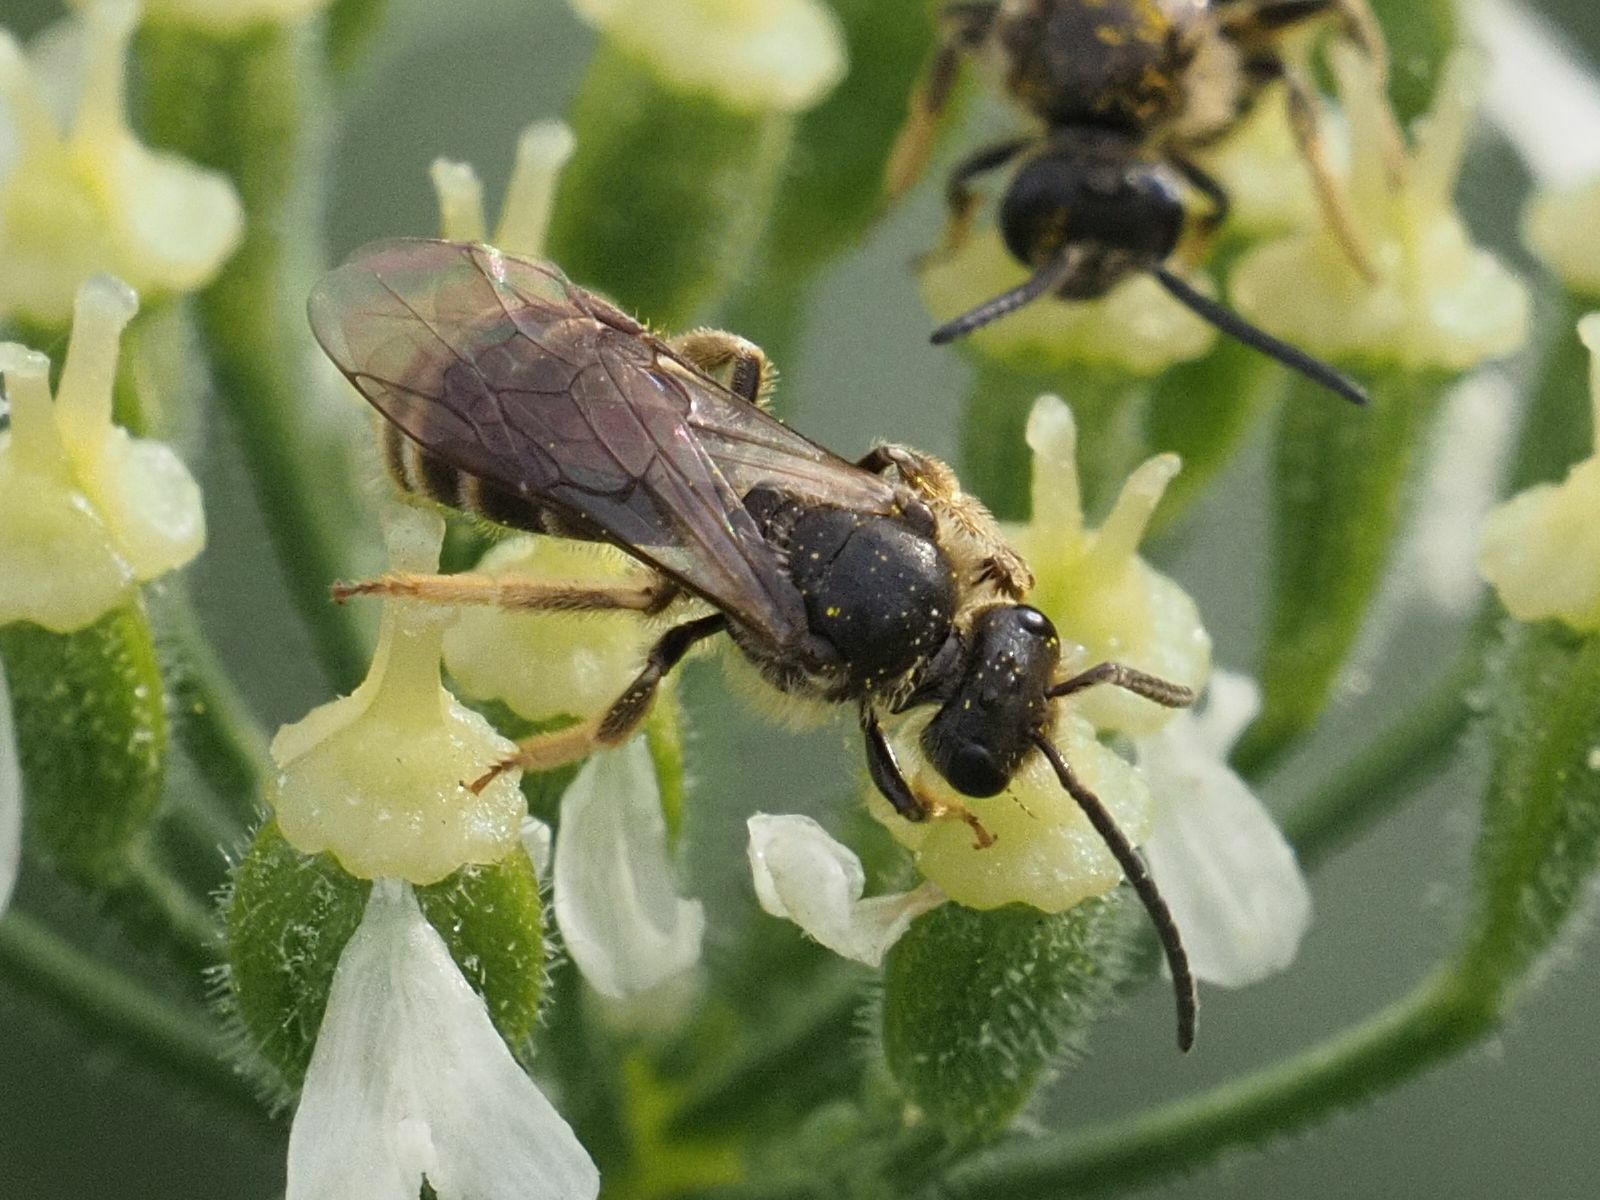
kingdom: Animalia
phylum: Arthropoda
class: Insecta
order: Hymenoptera
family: Halictidae
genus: Lasioglossum
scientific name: Lasioglossum marginatum
